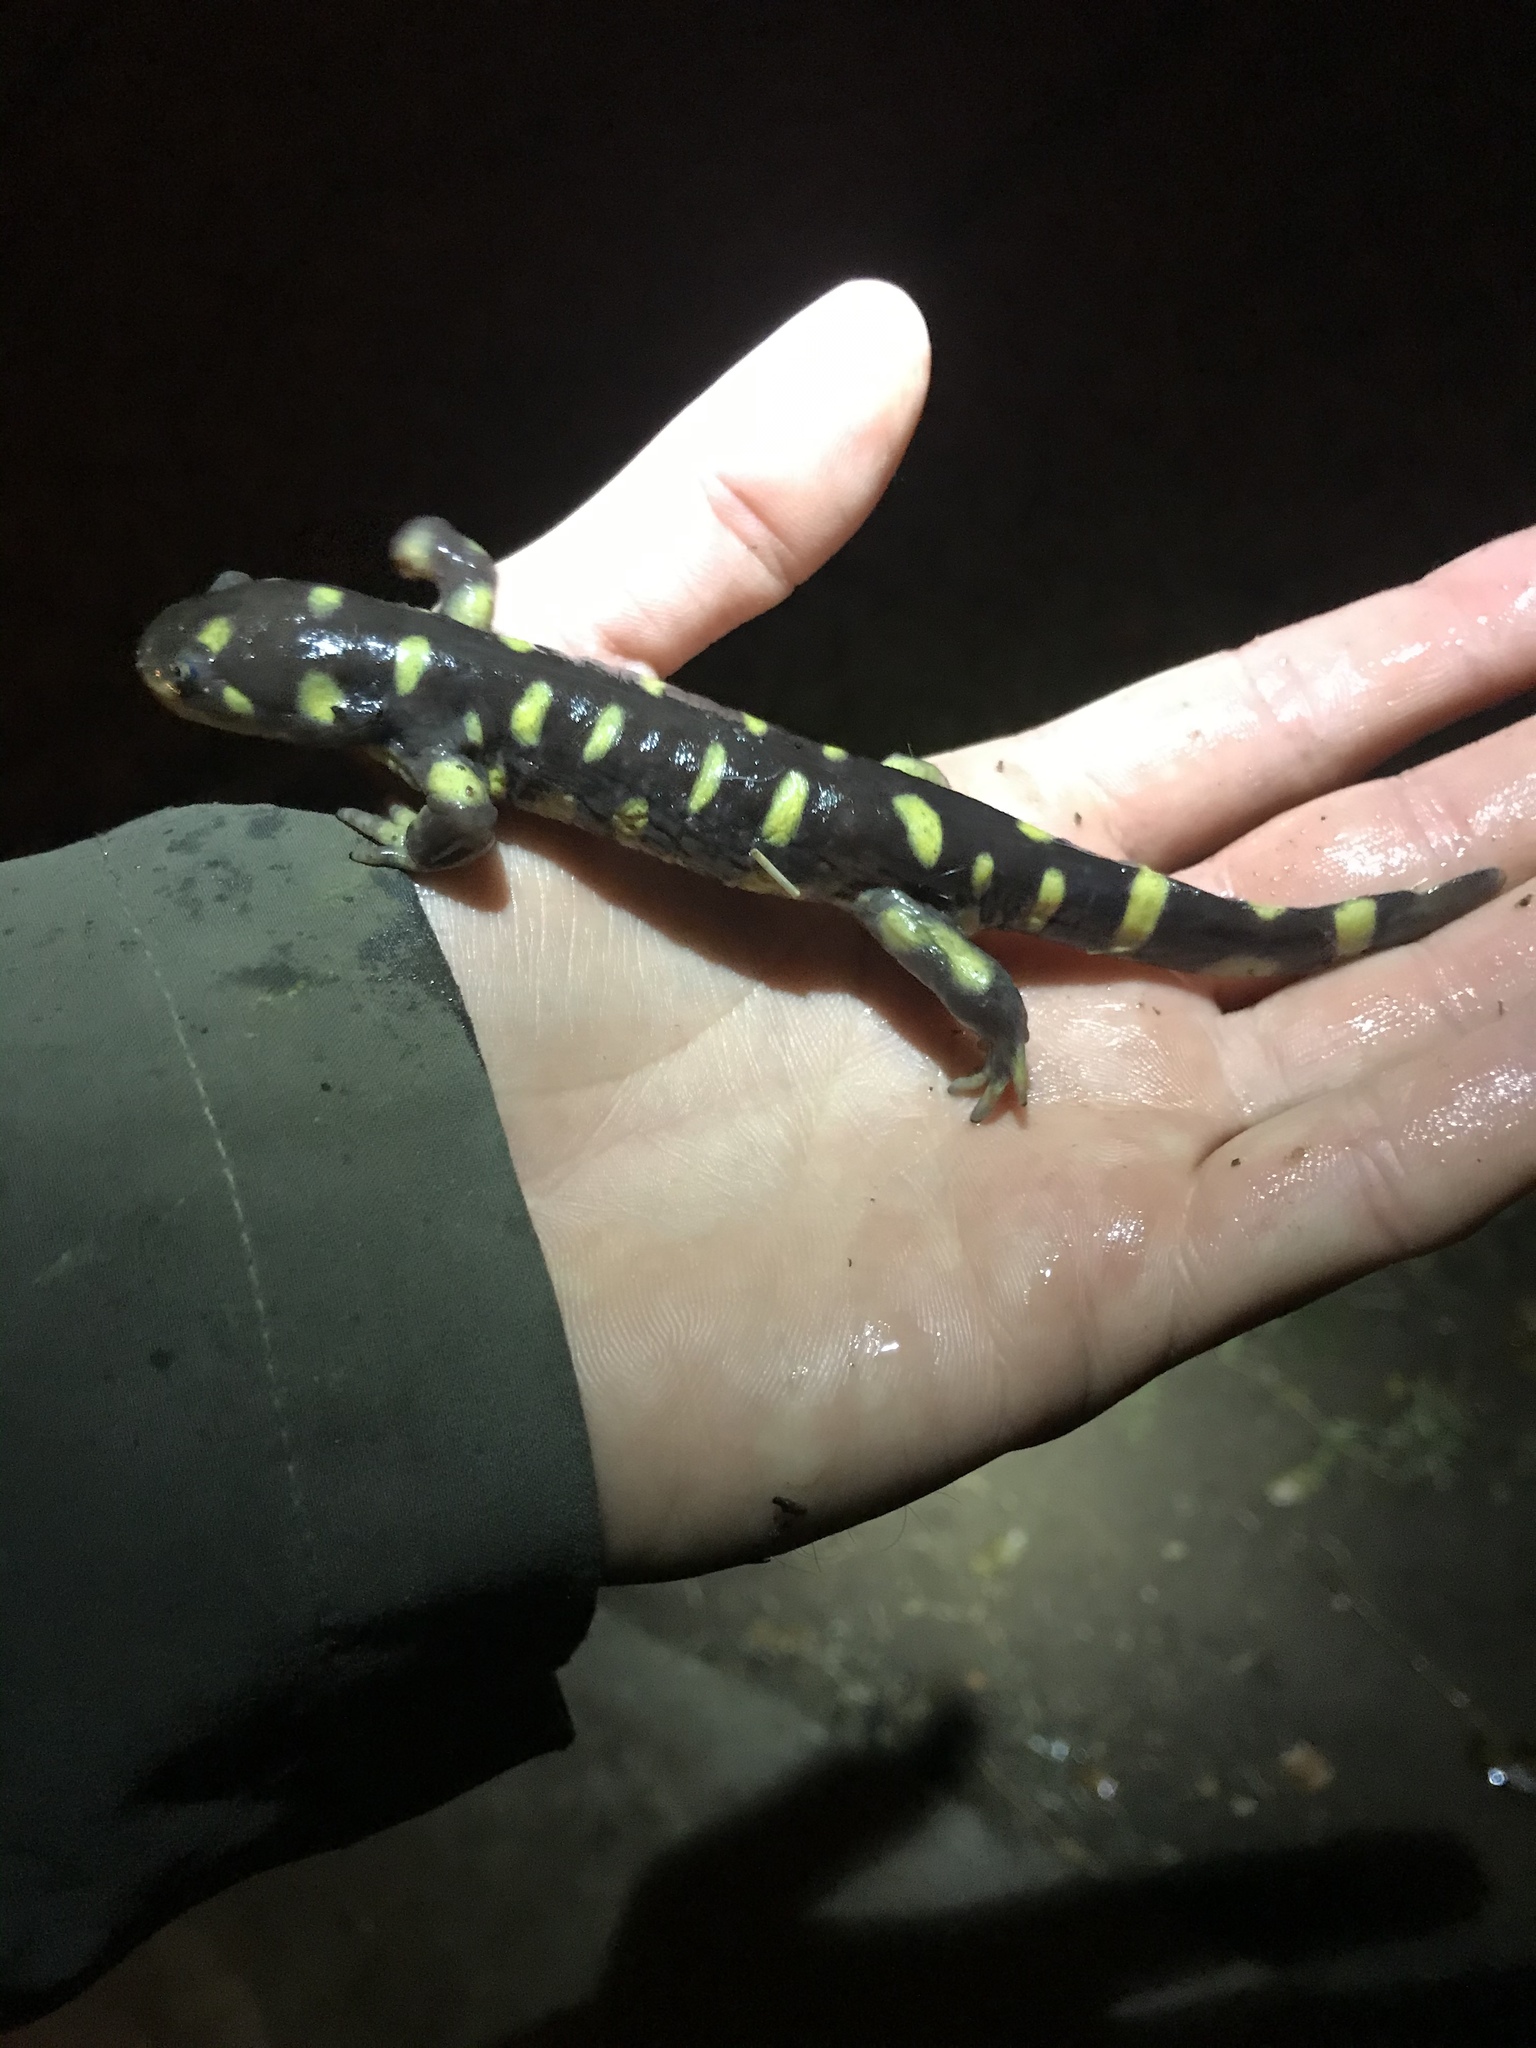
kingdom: Animalia
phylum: Chordata
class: Amphibia
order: Caudata
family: Ambystomatidae
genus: Ambystoma
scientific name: Ambystoma mavortium
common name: Western tiger salamander
